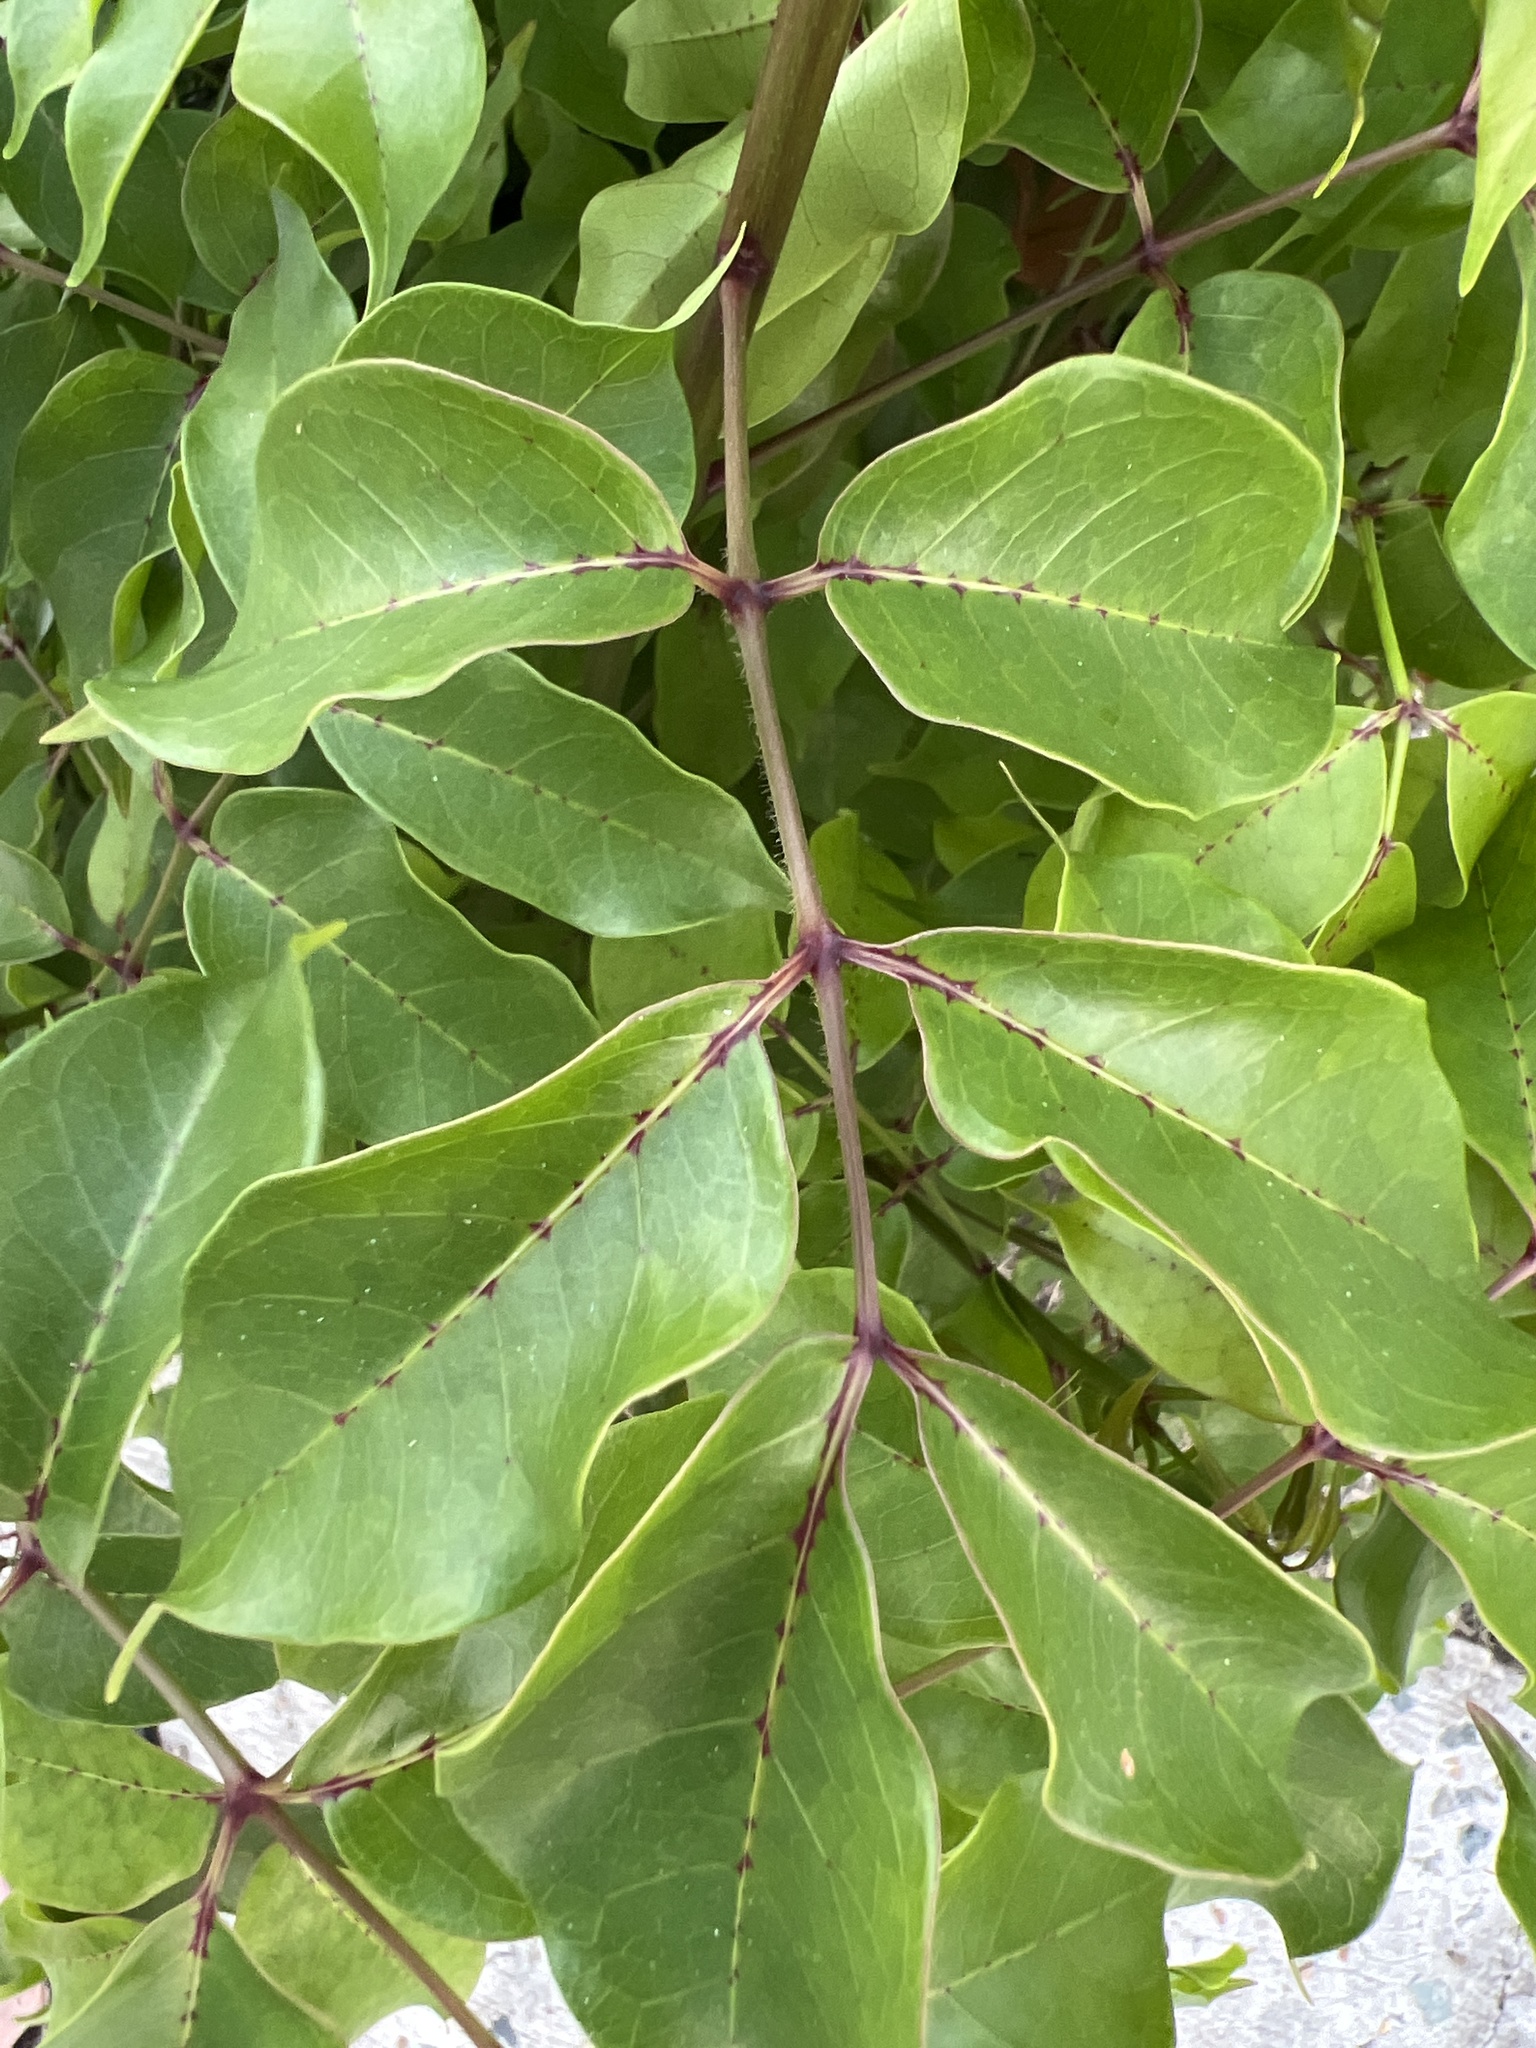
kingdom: Plantae
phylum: Tracheophyta
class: Magnoliopsida
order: Sapindales
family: Burseraceae
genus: Bursera
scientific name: Bursera simaruba
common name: Turpentine tree
